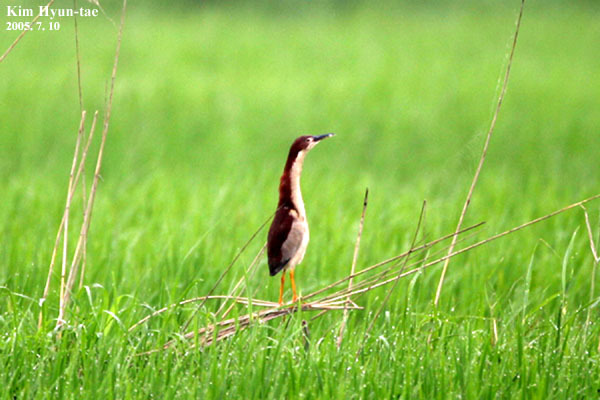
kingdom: Animalia
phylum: Chordata
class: Aves
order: Pelecaniformes
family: Ardeidae
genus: Ixobrychus
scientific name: Ixobrychus eurhythmus
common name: Von schrenck's bittern
